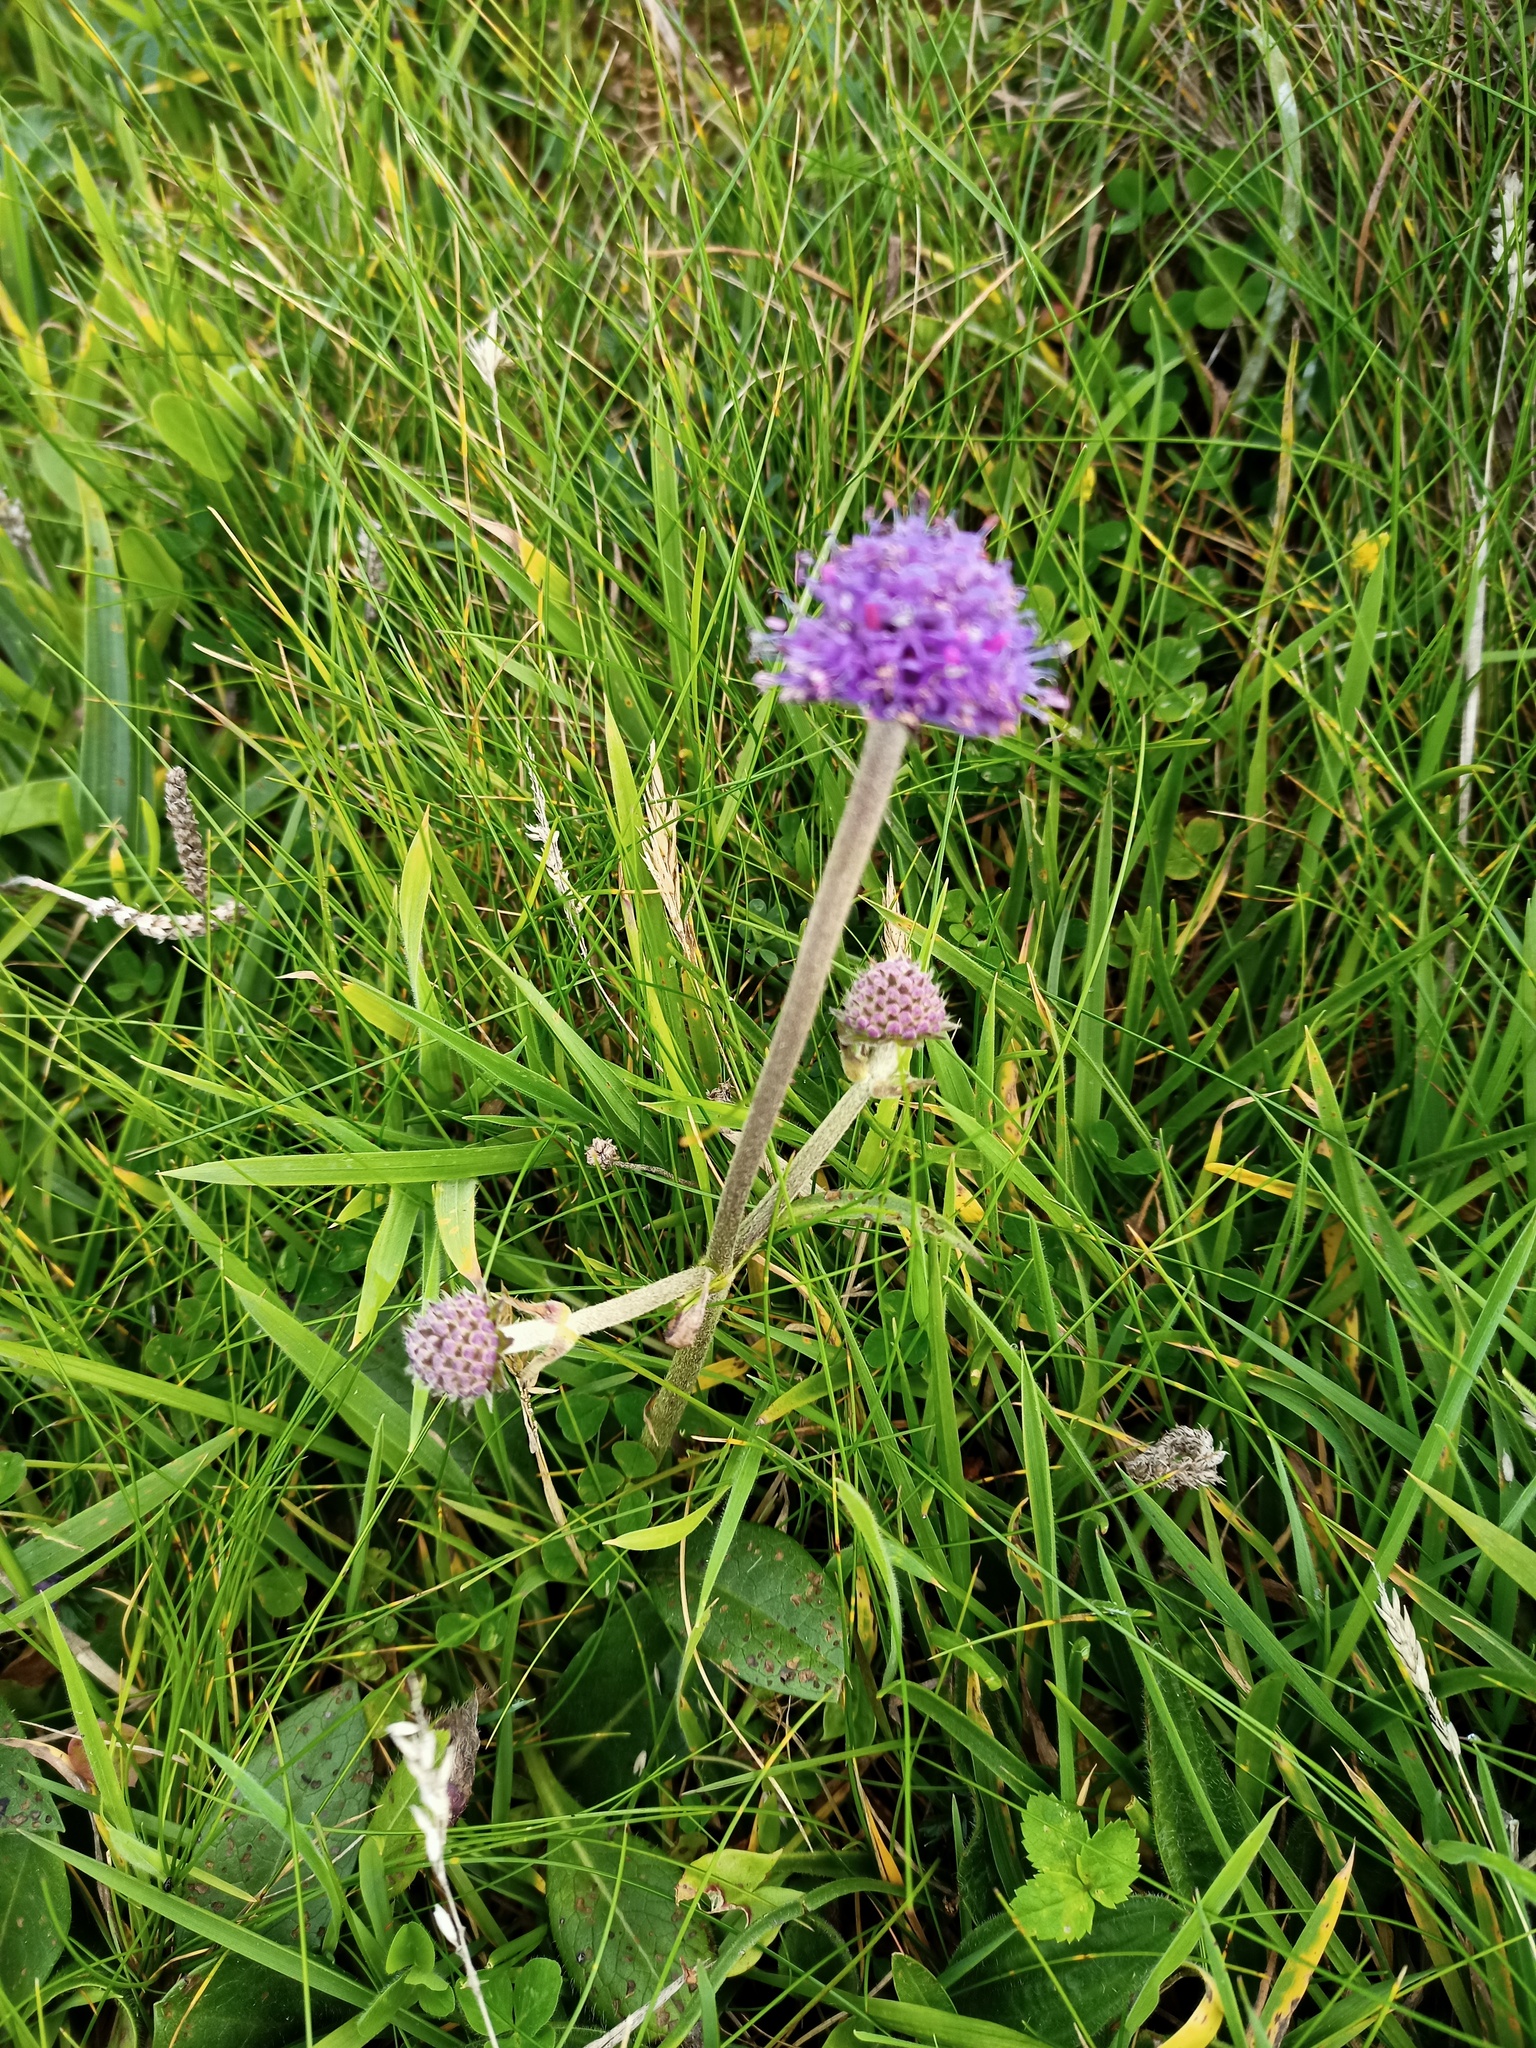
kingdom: Plantae
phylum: Tracheophyta
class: Magnoliopsida
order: Dipsacales
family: Caprifoliaceae
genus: Succisa
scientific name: Succisa pratensis
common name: Devil's-bit
